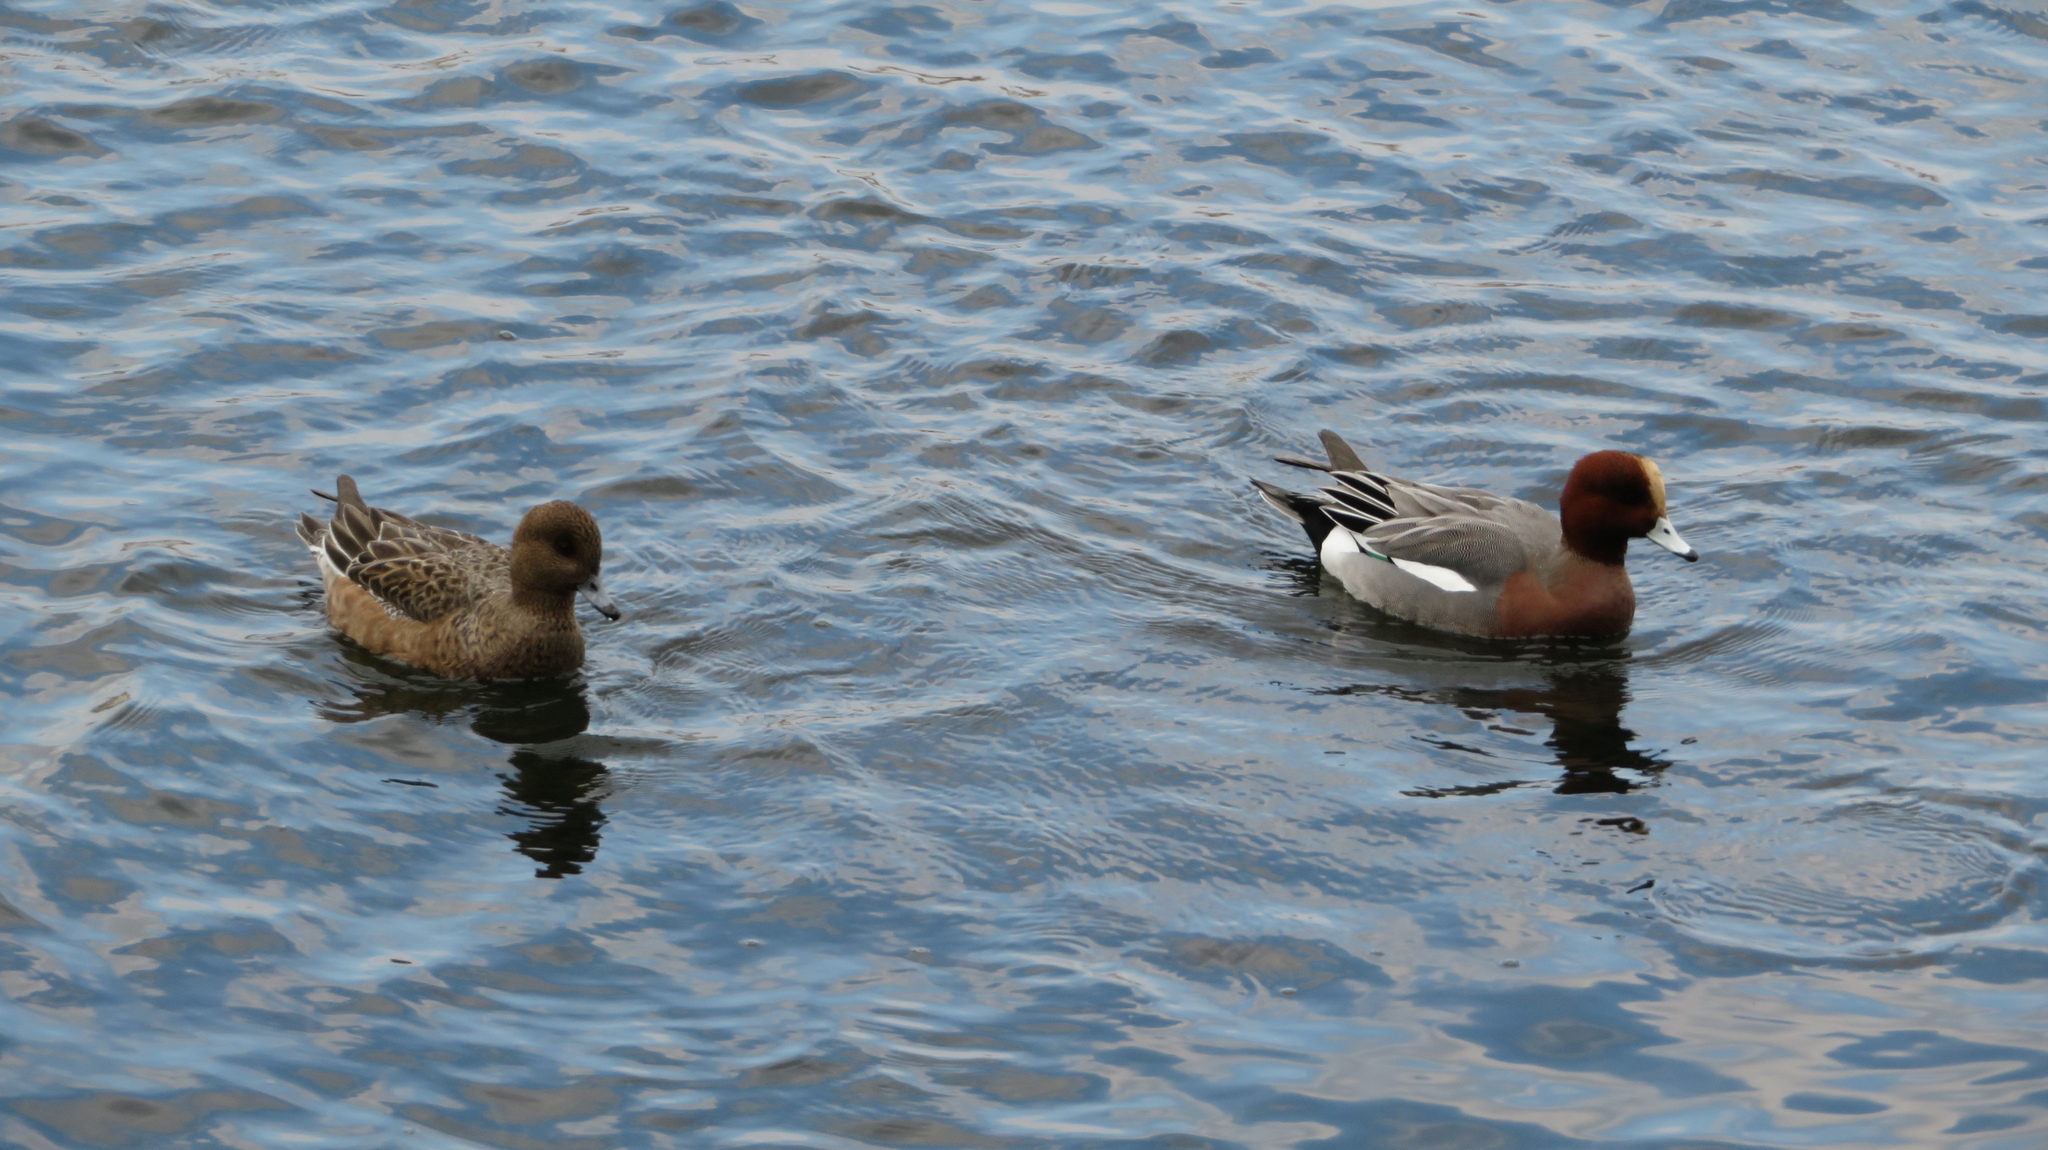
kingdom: Animalia
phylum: Chordata
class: Aves
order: Anseriformes
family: Anatidae
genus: Mareca
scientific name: Mareca penelope
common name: Eurasian wigeon
